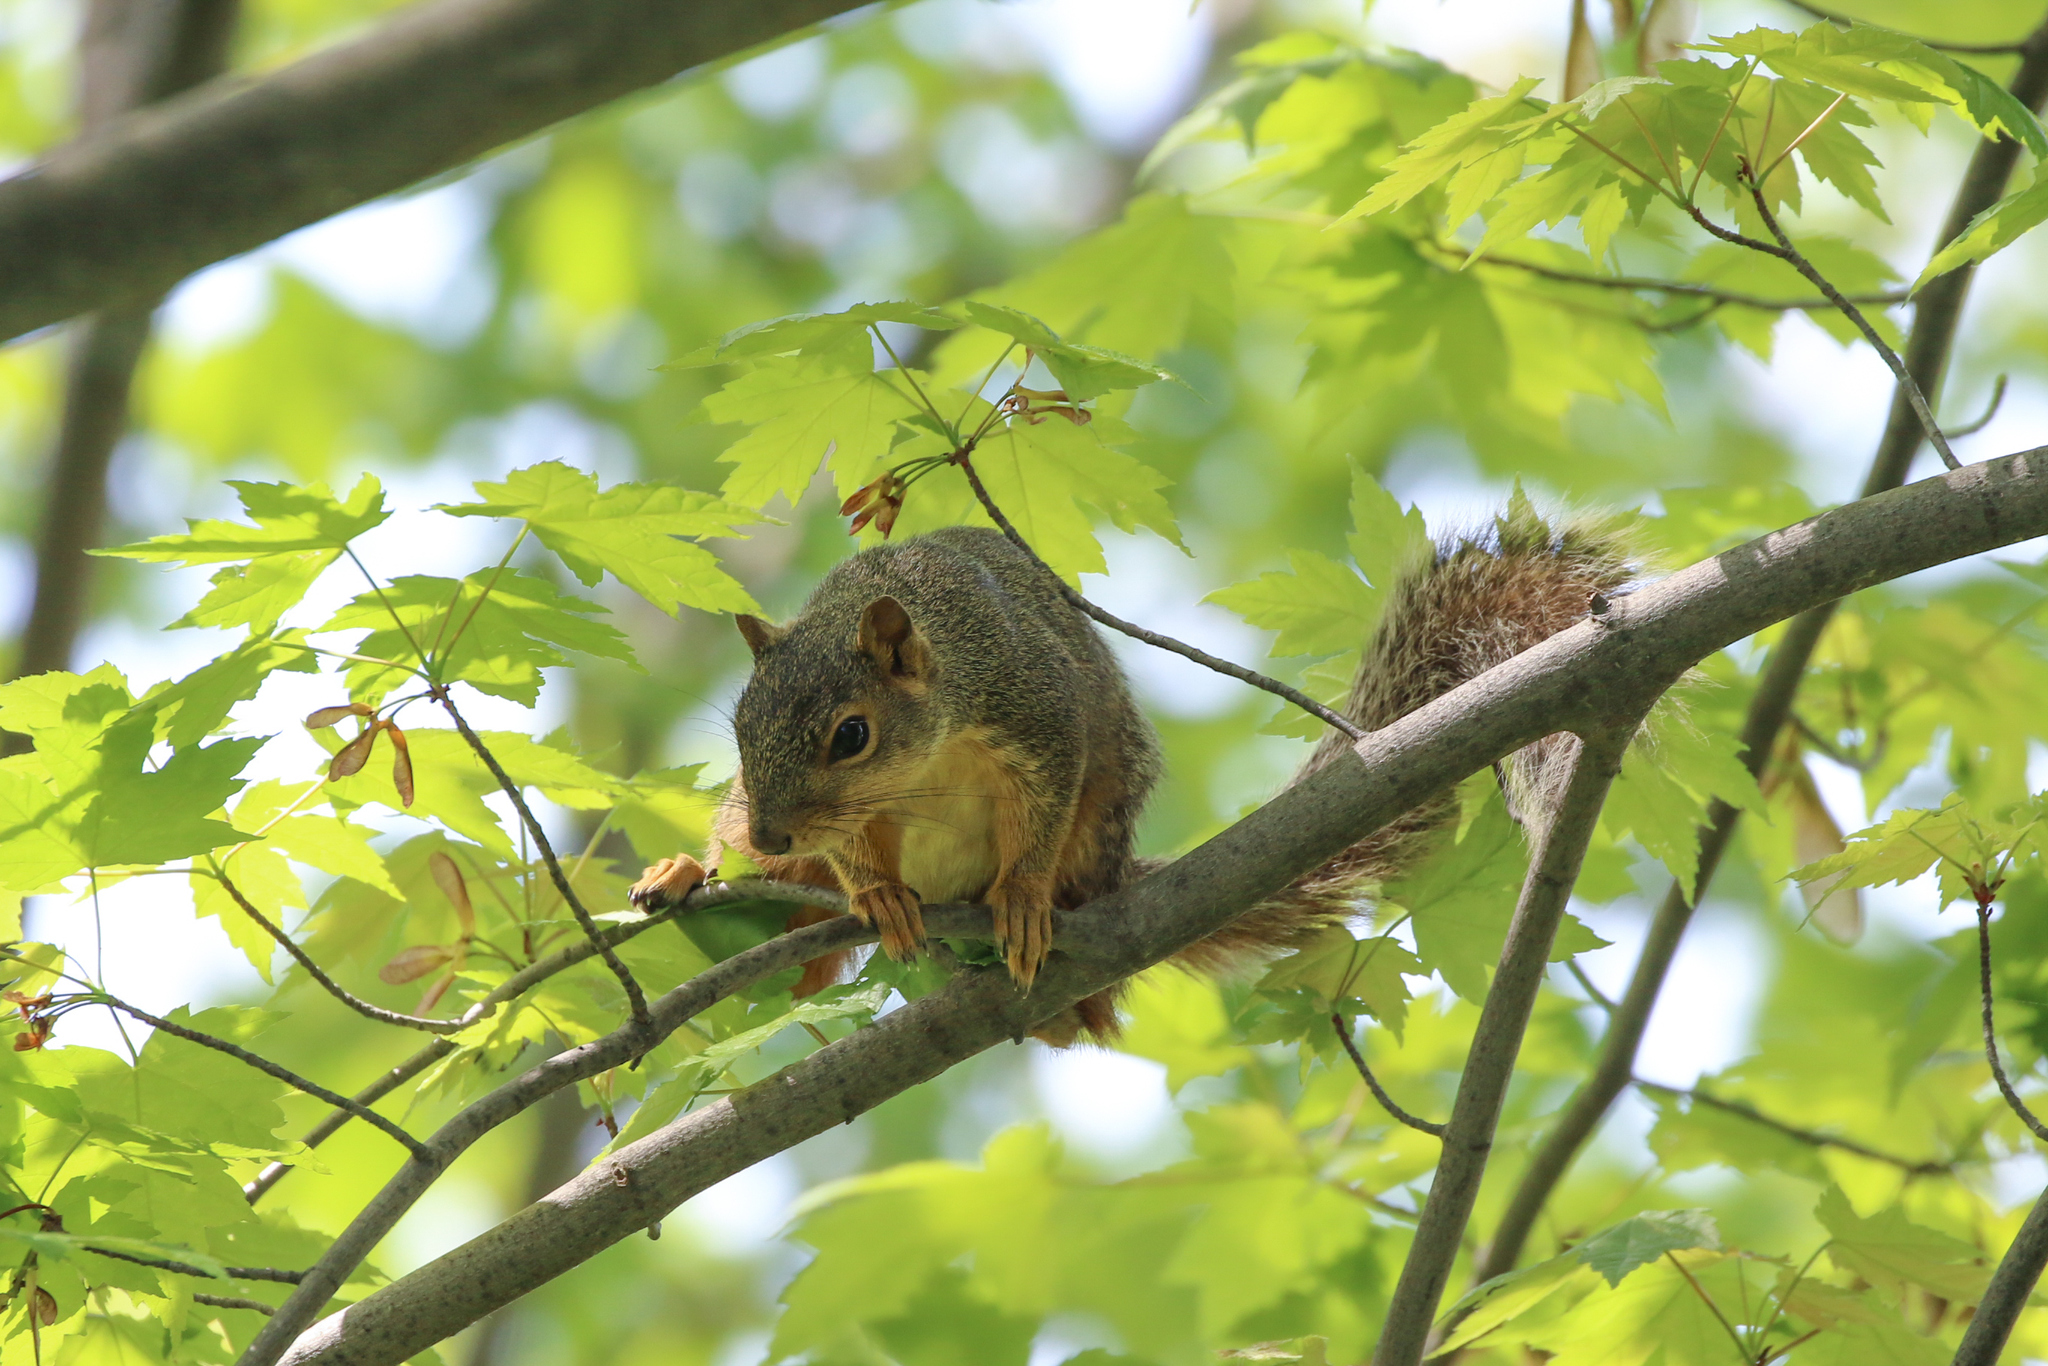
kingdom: Animalia
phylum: Chordata
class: Mammalia
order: Rodentia
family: Sciuridae
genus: Sciurus
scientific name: Sciurus niger
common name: Fox squirrel
